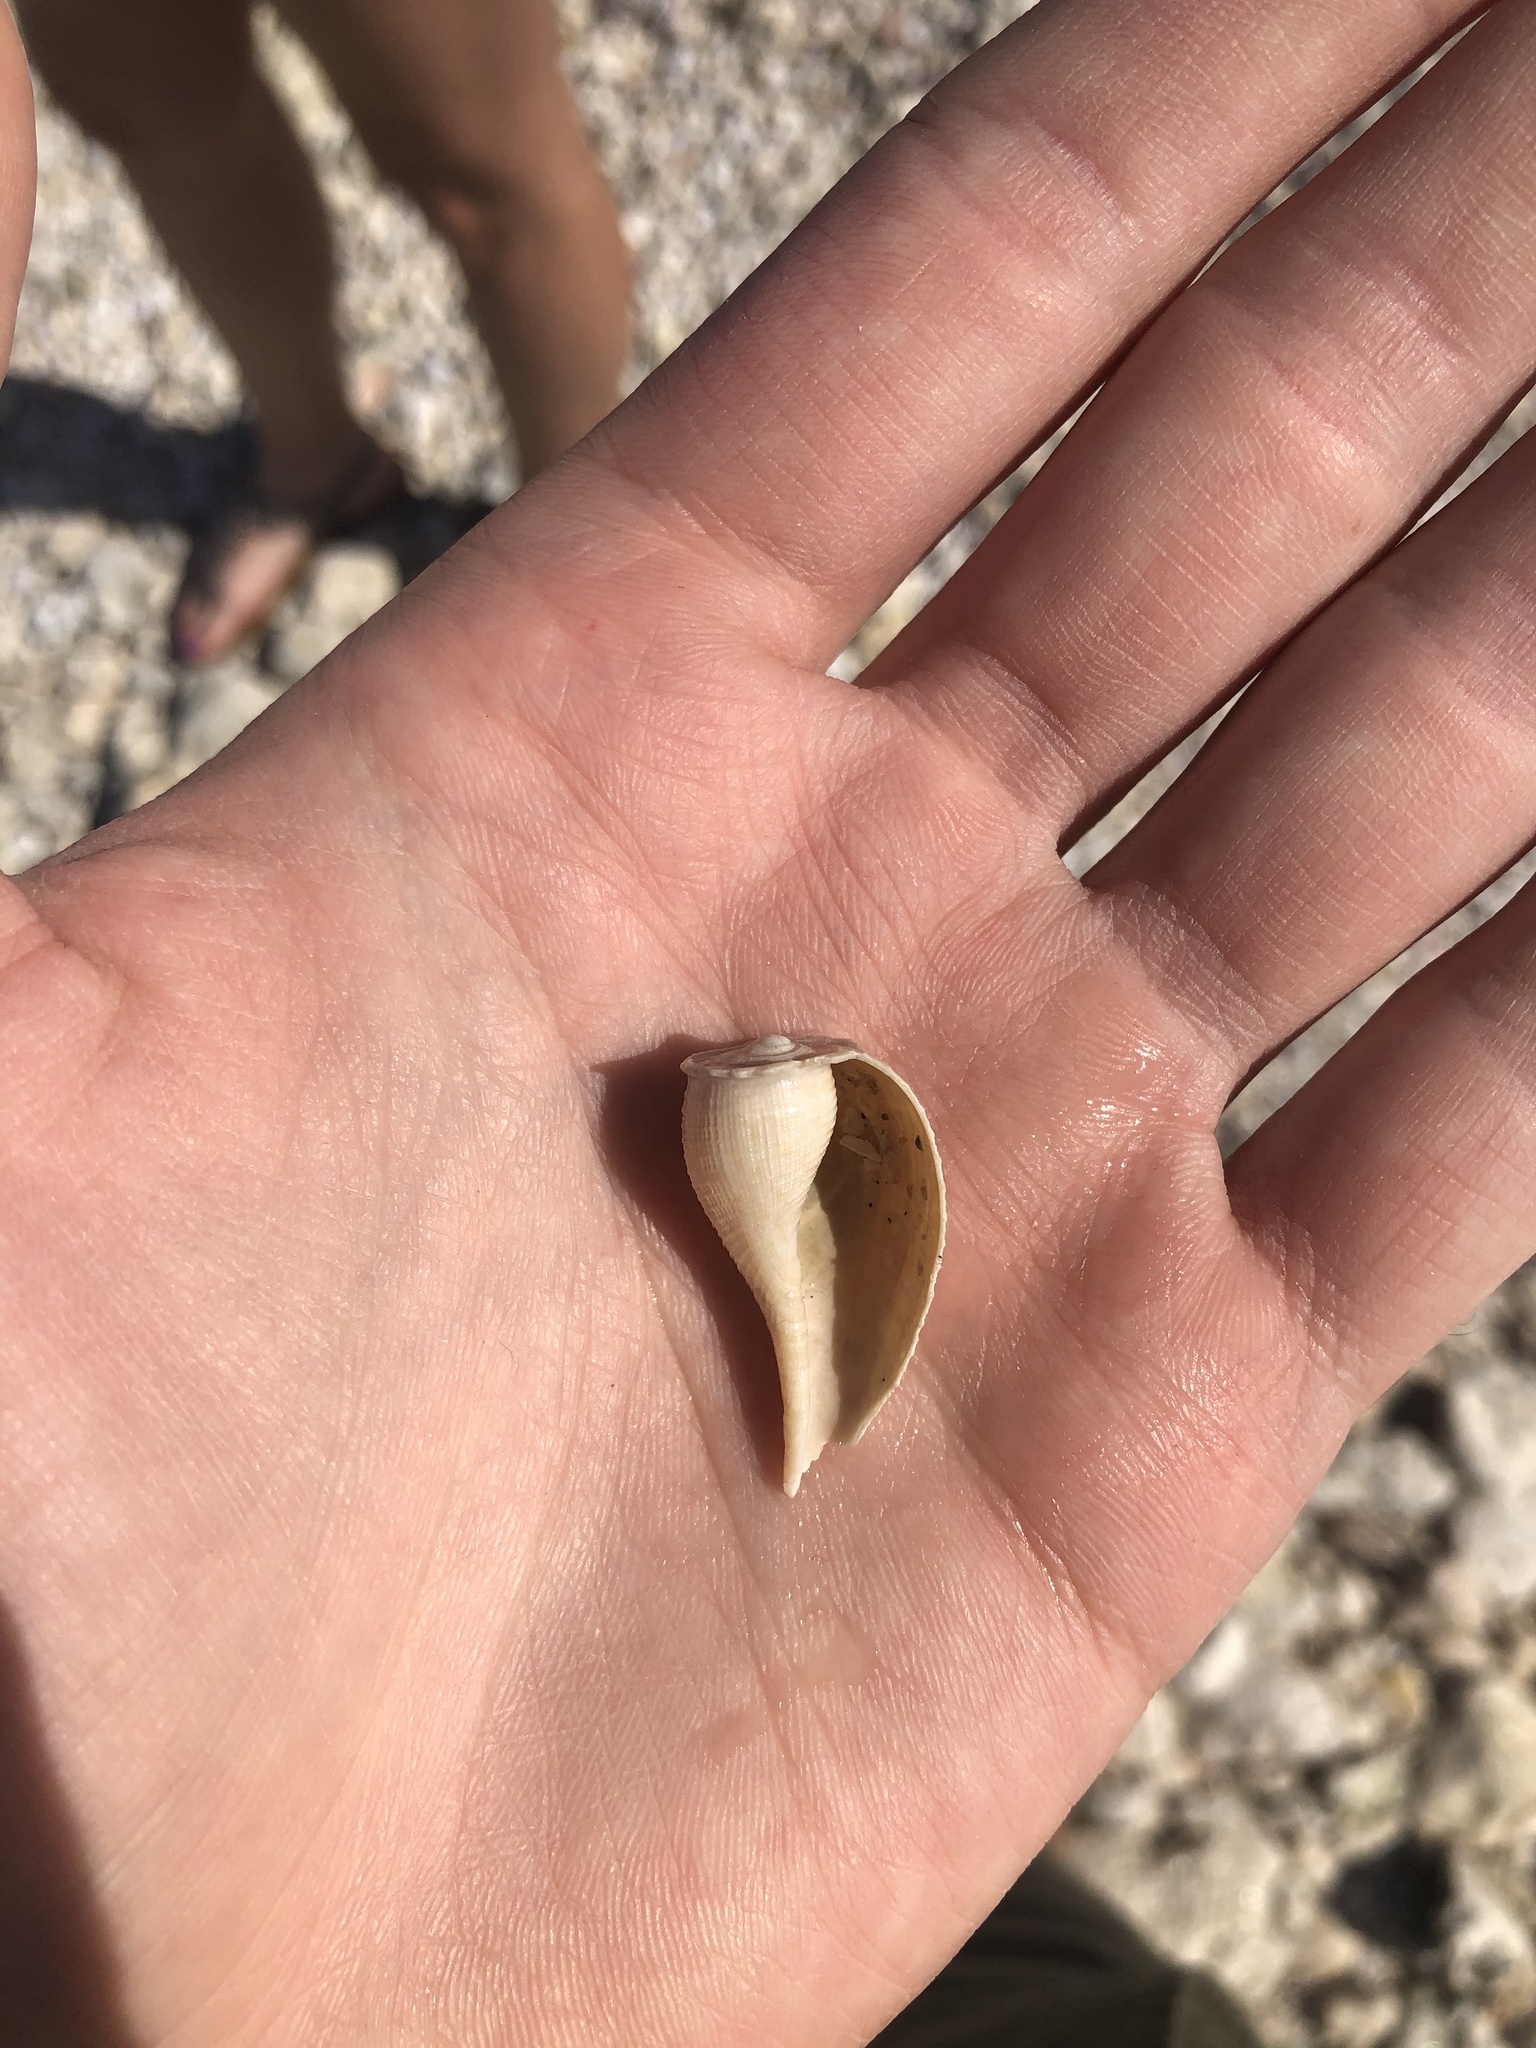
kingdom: Animalia
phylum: Mollusca
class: Gastropoda
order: Littorinimorpha
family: Ficidae
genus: Ficus
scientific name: Ficus papyratia
